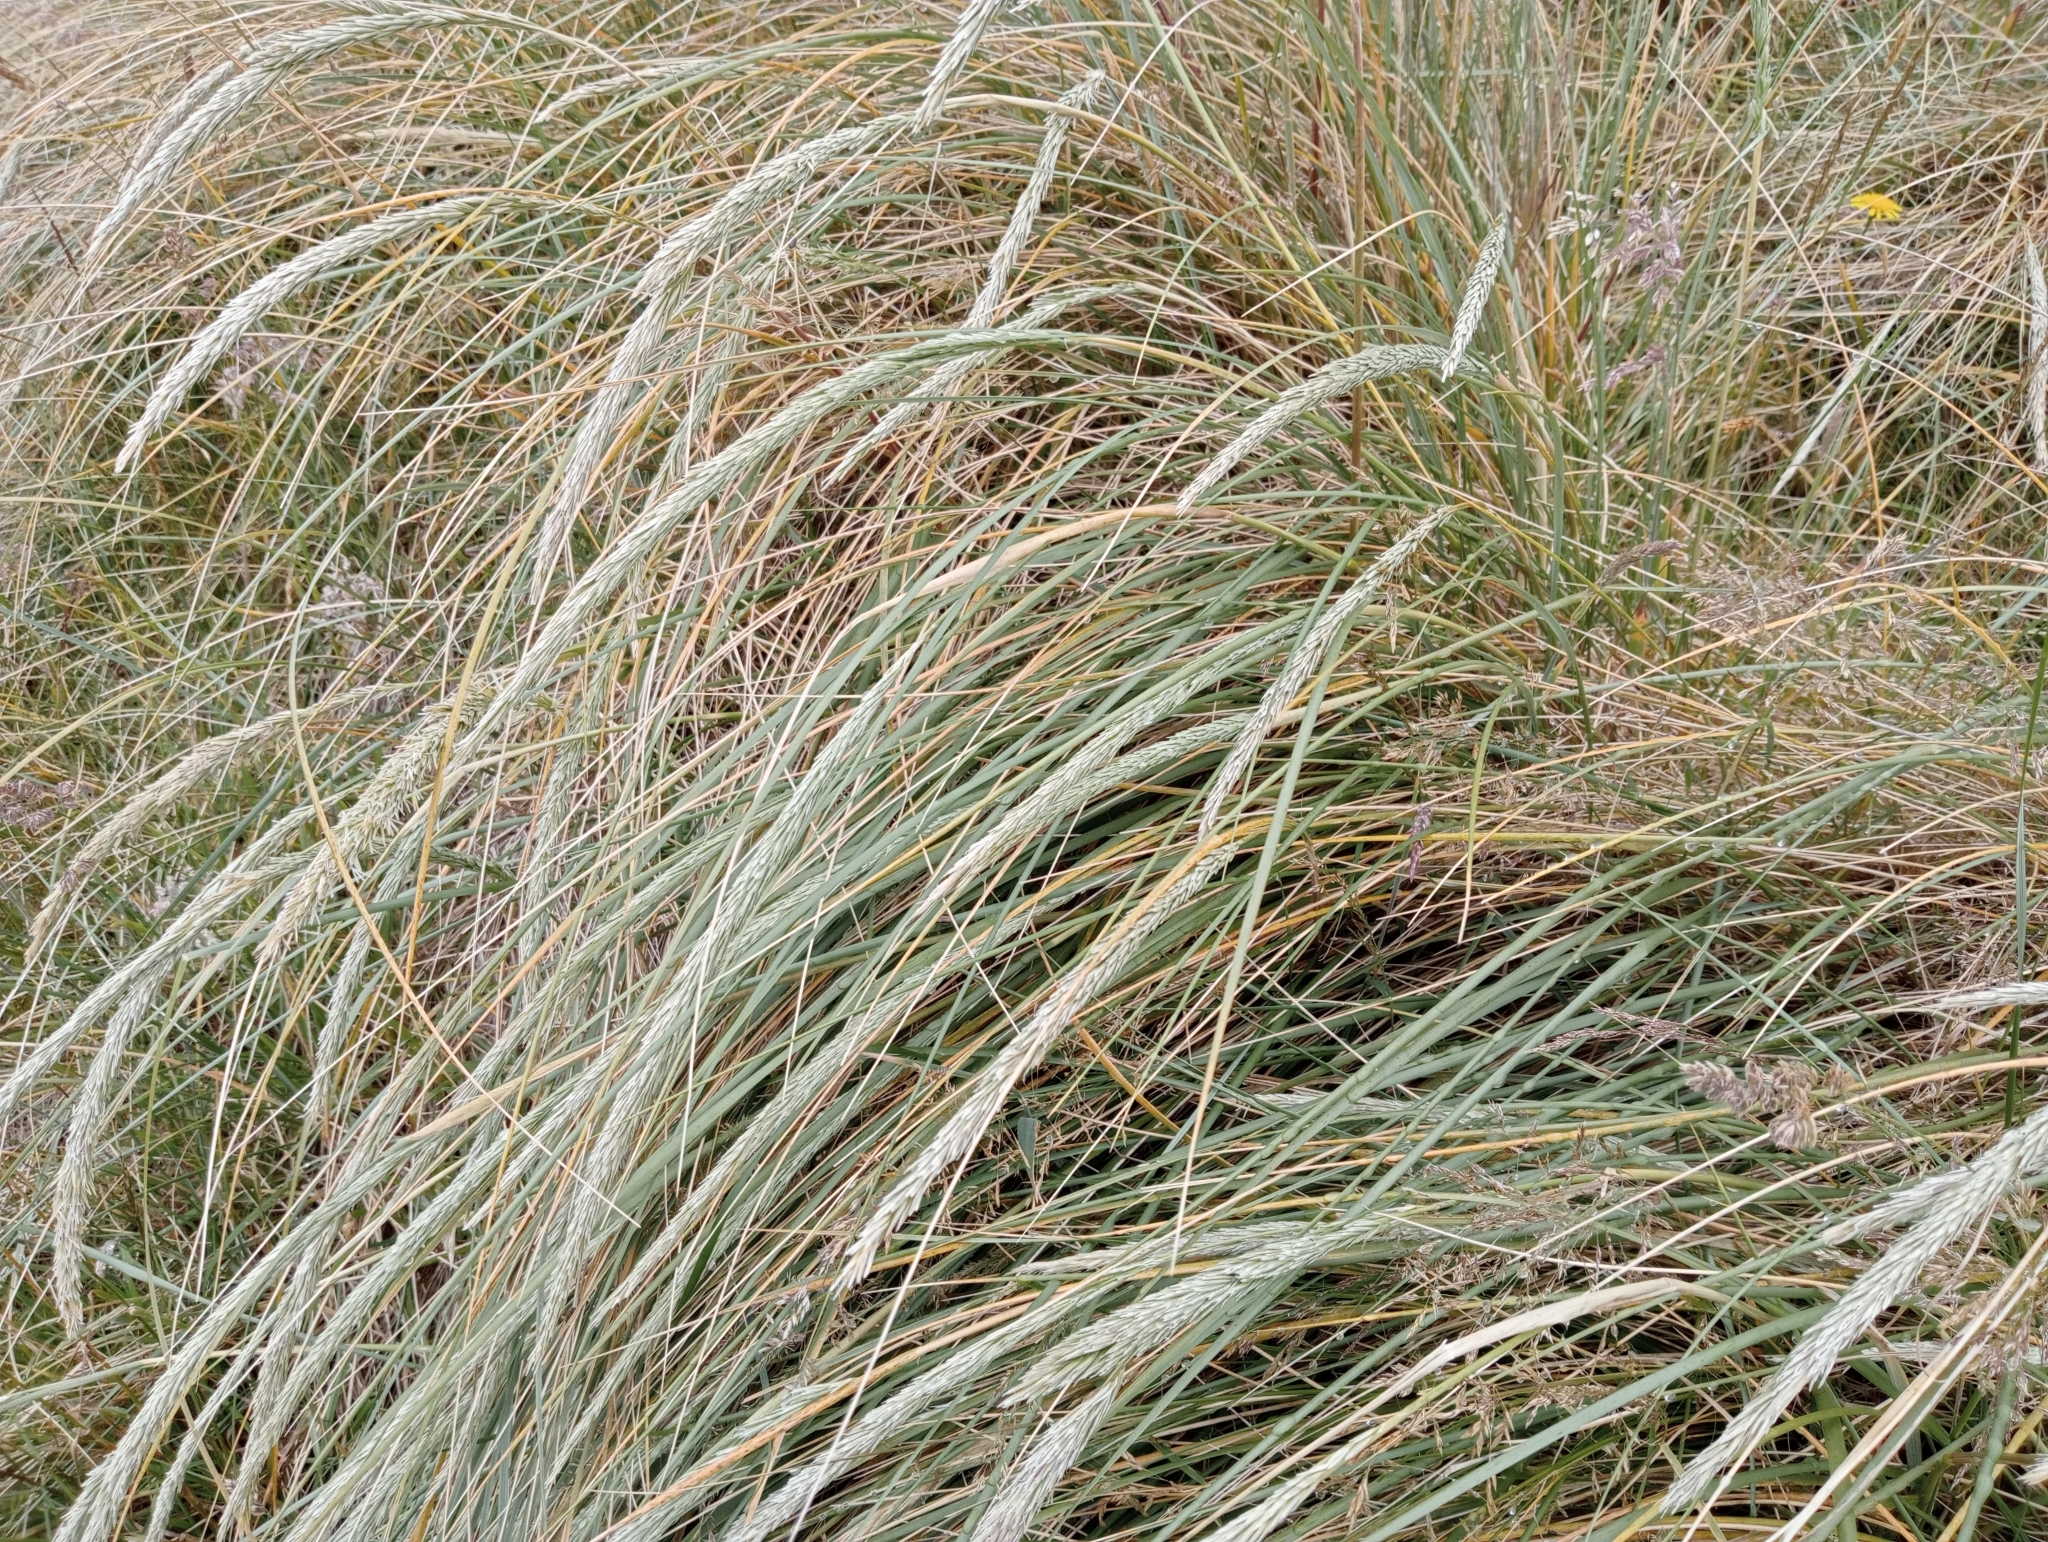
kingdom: Plantae
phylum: Tracheophyta
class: Liliopsida
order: Poales
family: Poaceae
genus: Calamagrostis
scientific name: Calamagrostis arenaria
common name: European beachgrass
